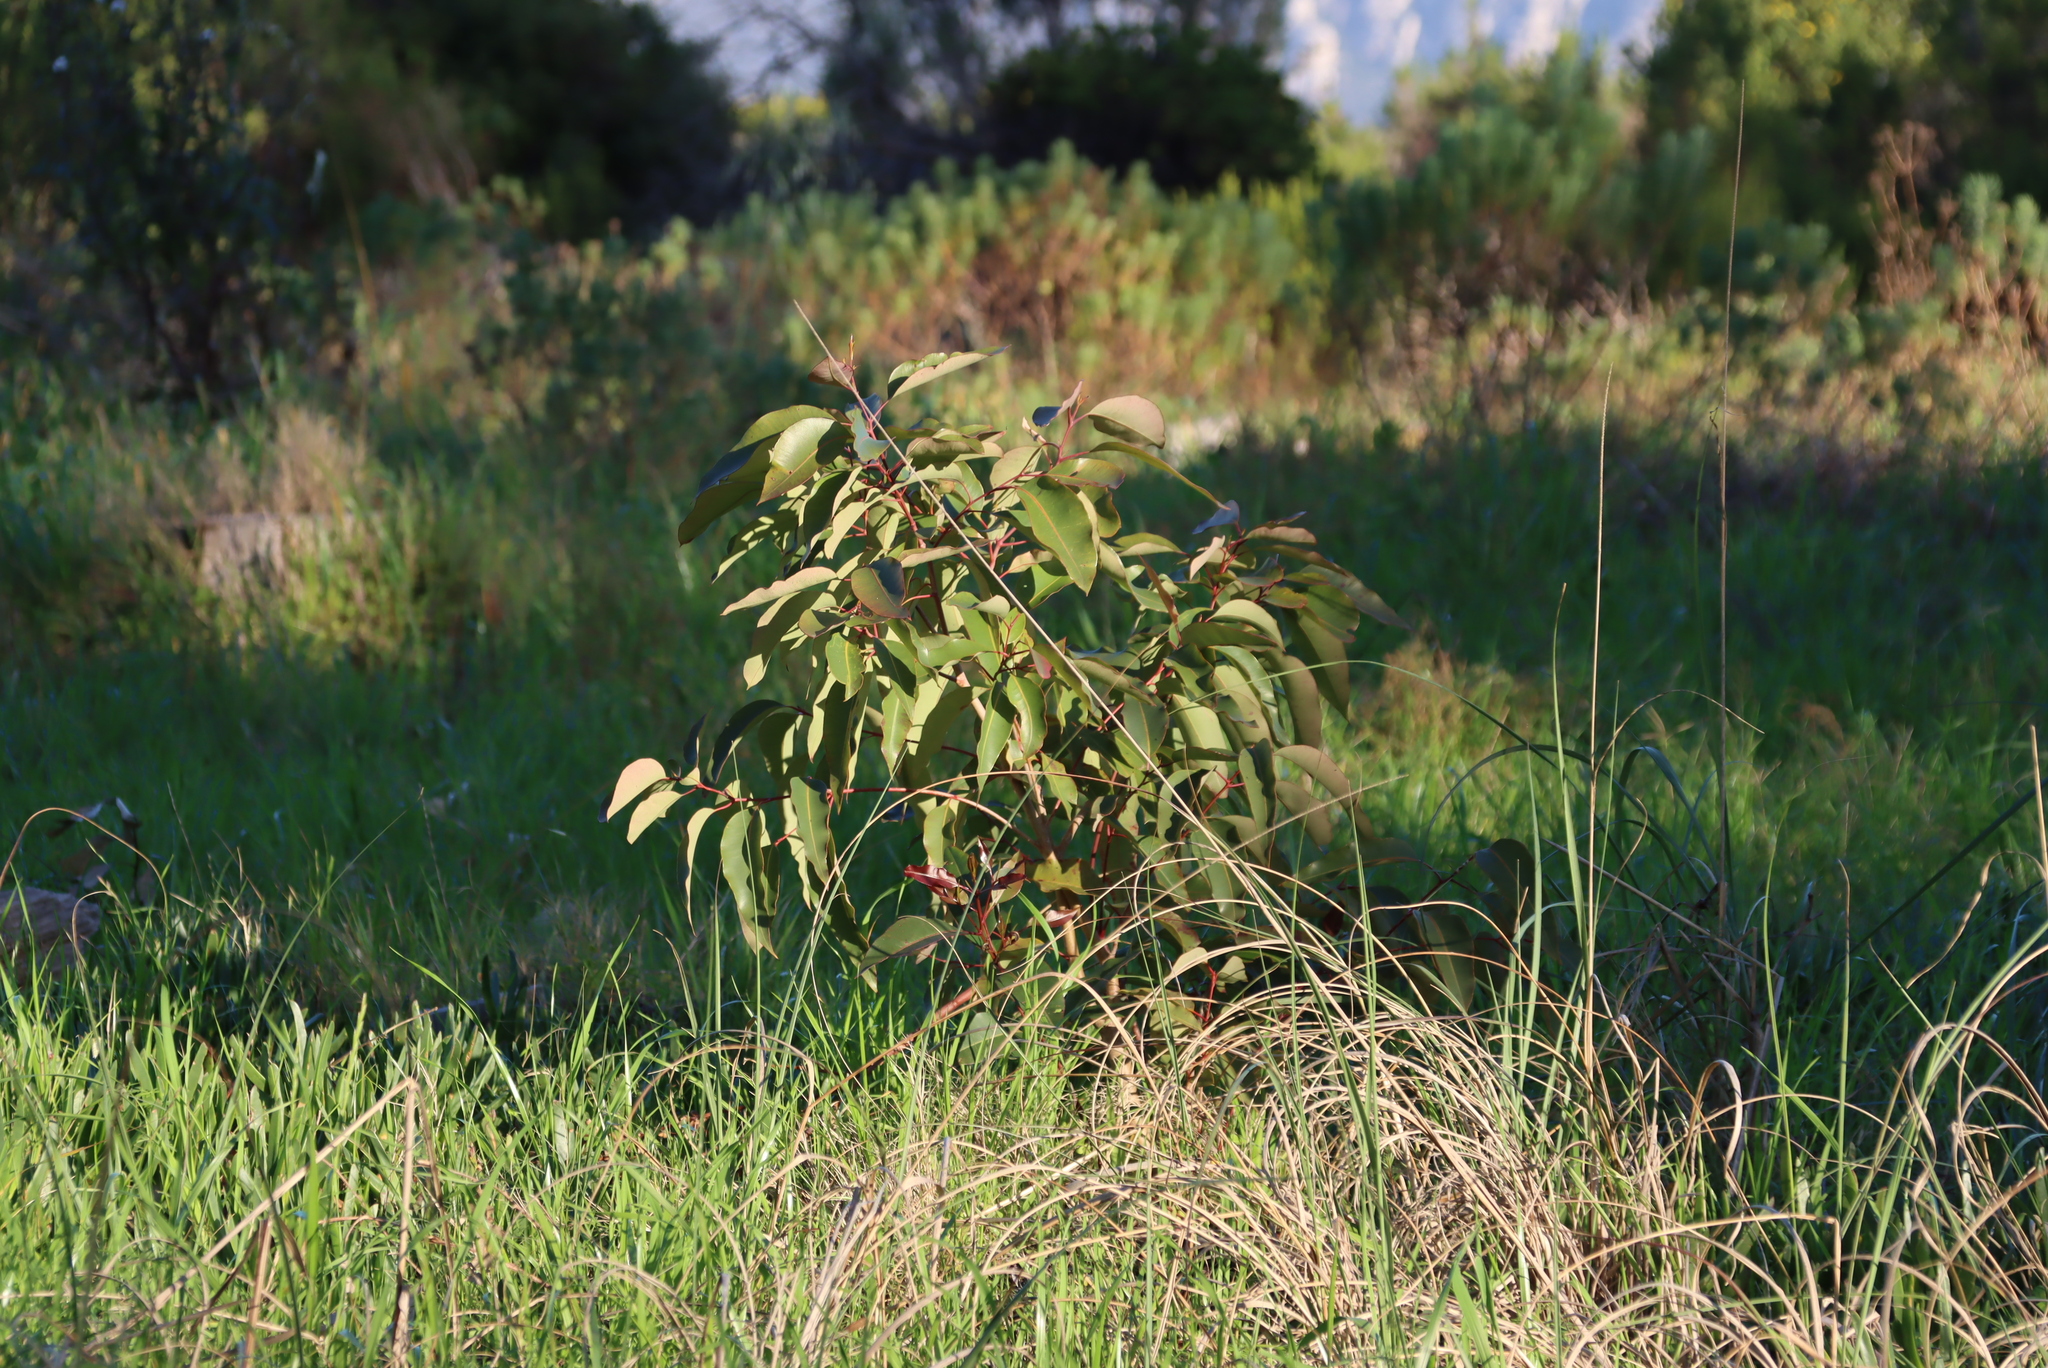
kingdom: Plantae
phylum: Tracheophyta
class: Magnoliopsida
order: Myrtales
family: Myrtaceae
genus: Corymbia
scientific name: Corymbia ficifolia
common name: Redflower gum
